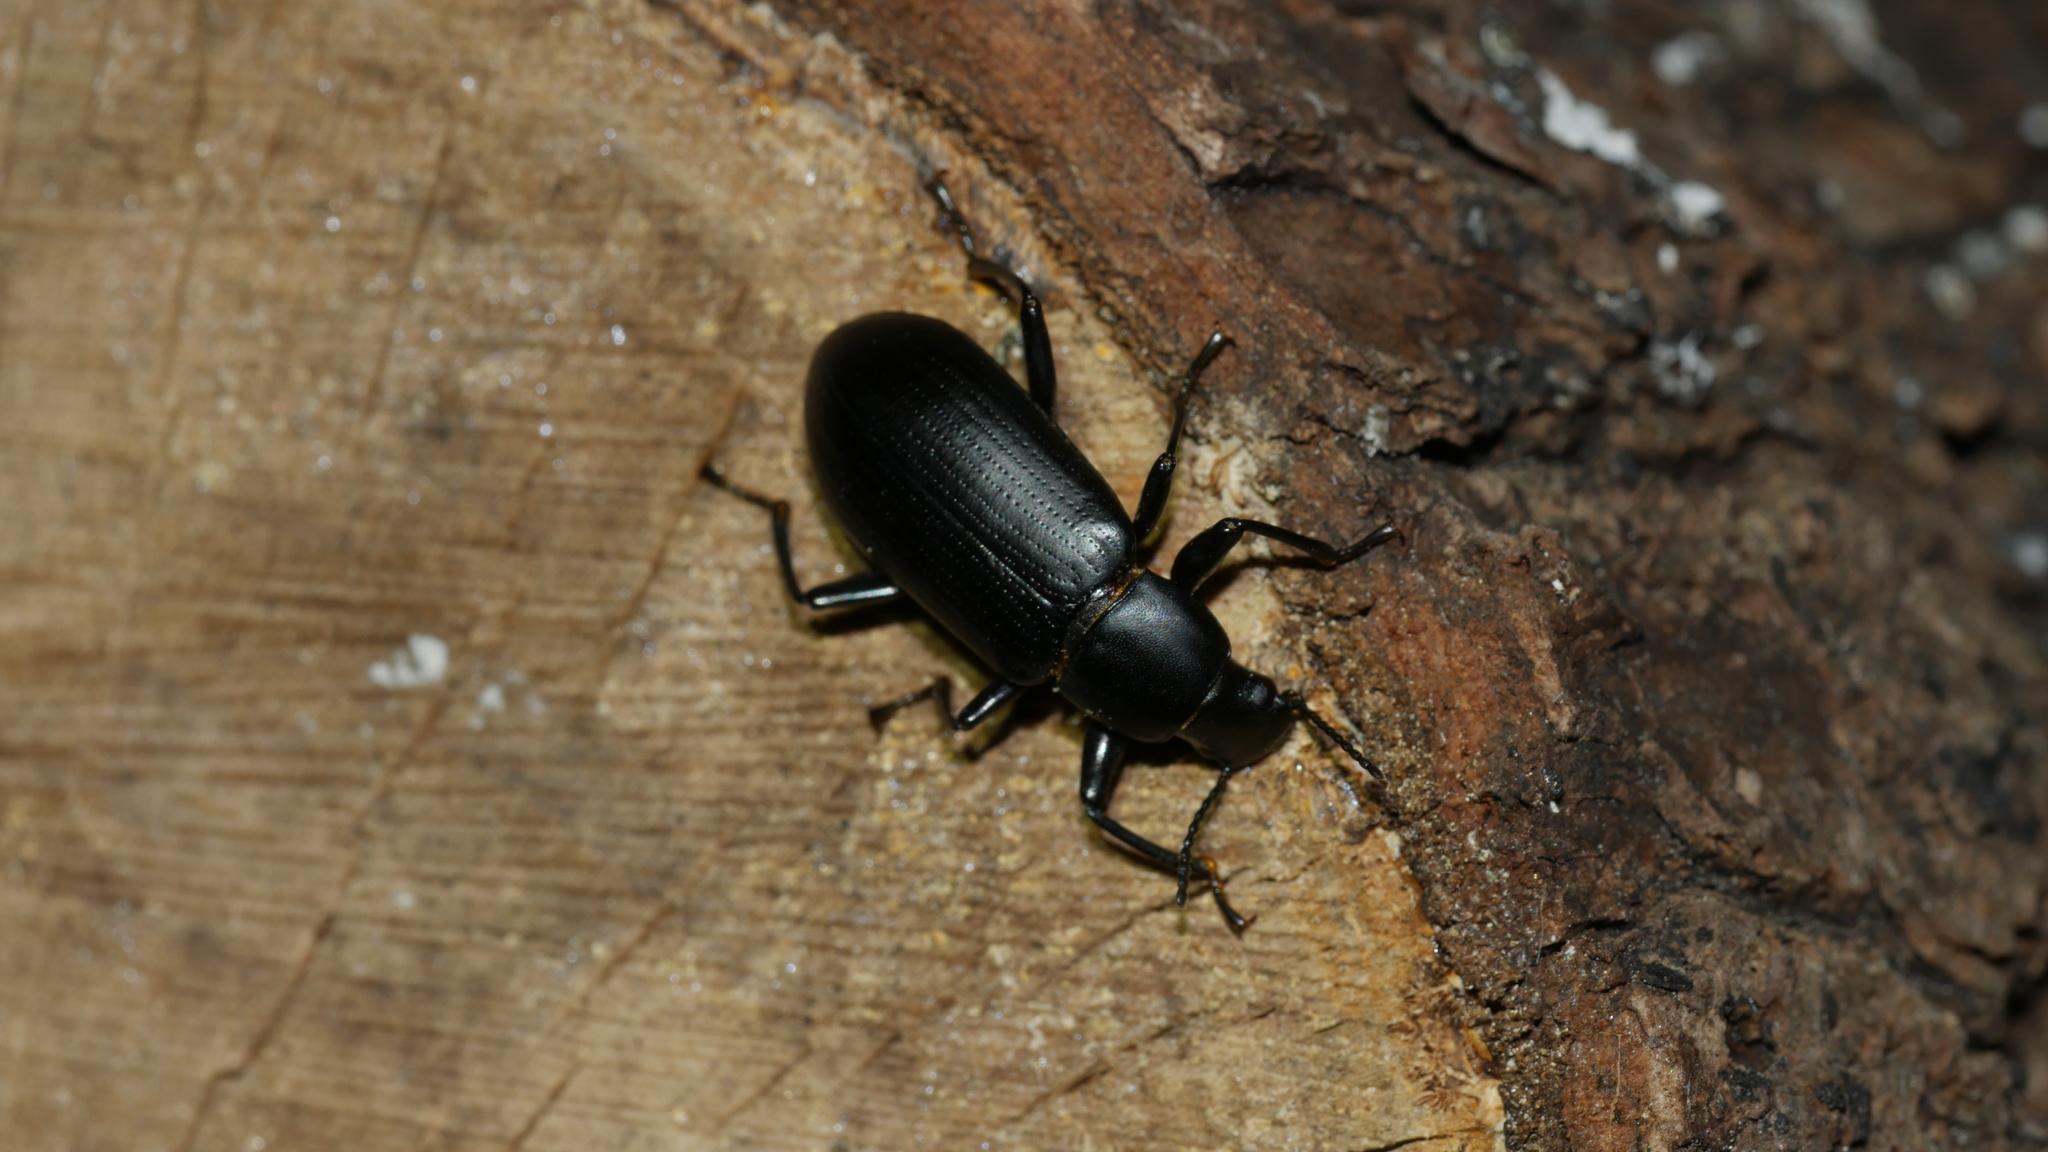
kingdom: Animalia
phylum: Arthropoda
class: Insecta
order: Coleoptera
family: Tenebrionidae
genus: Alobates
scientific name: Alobates
